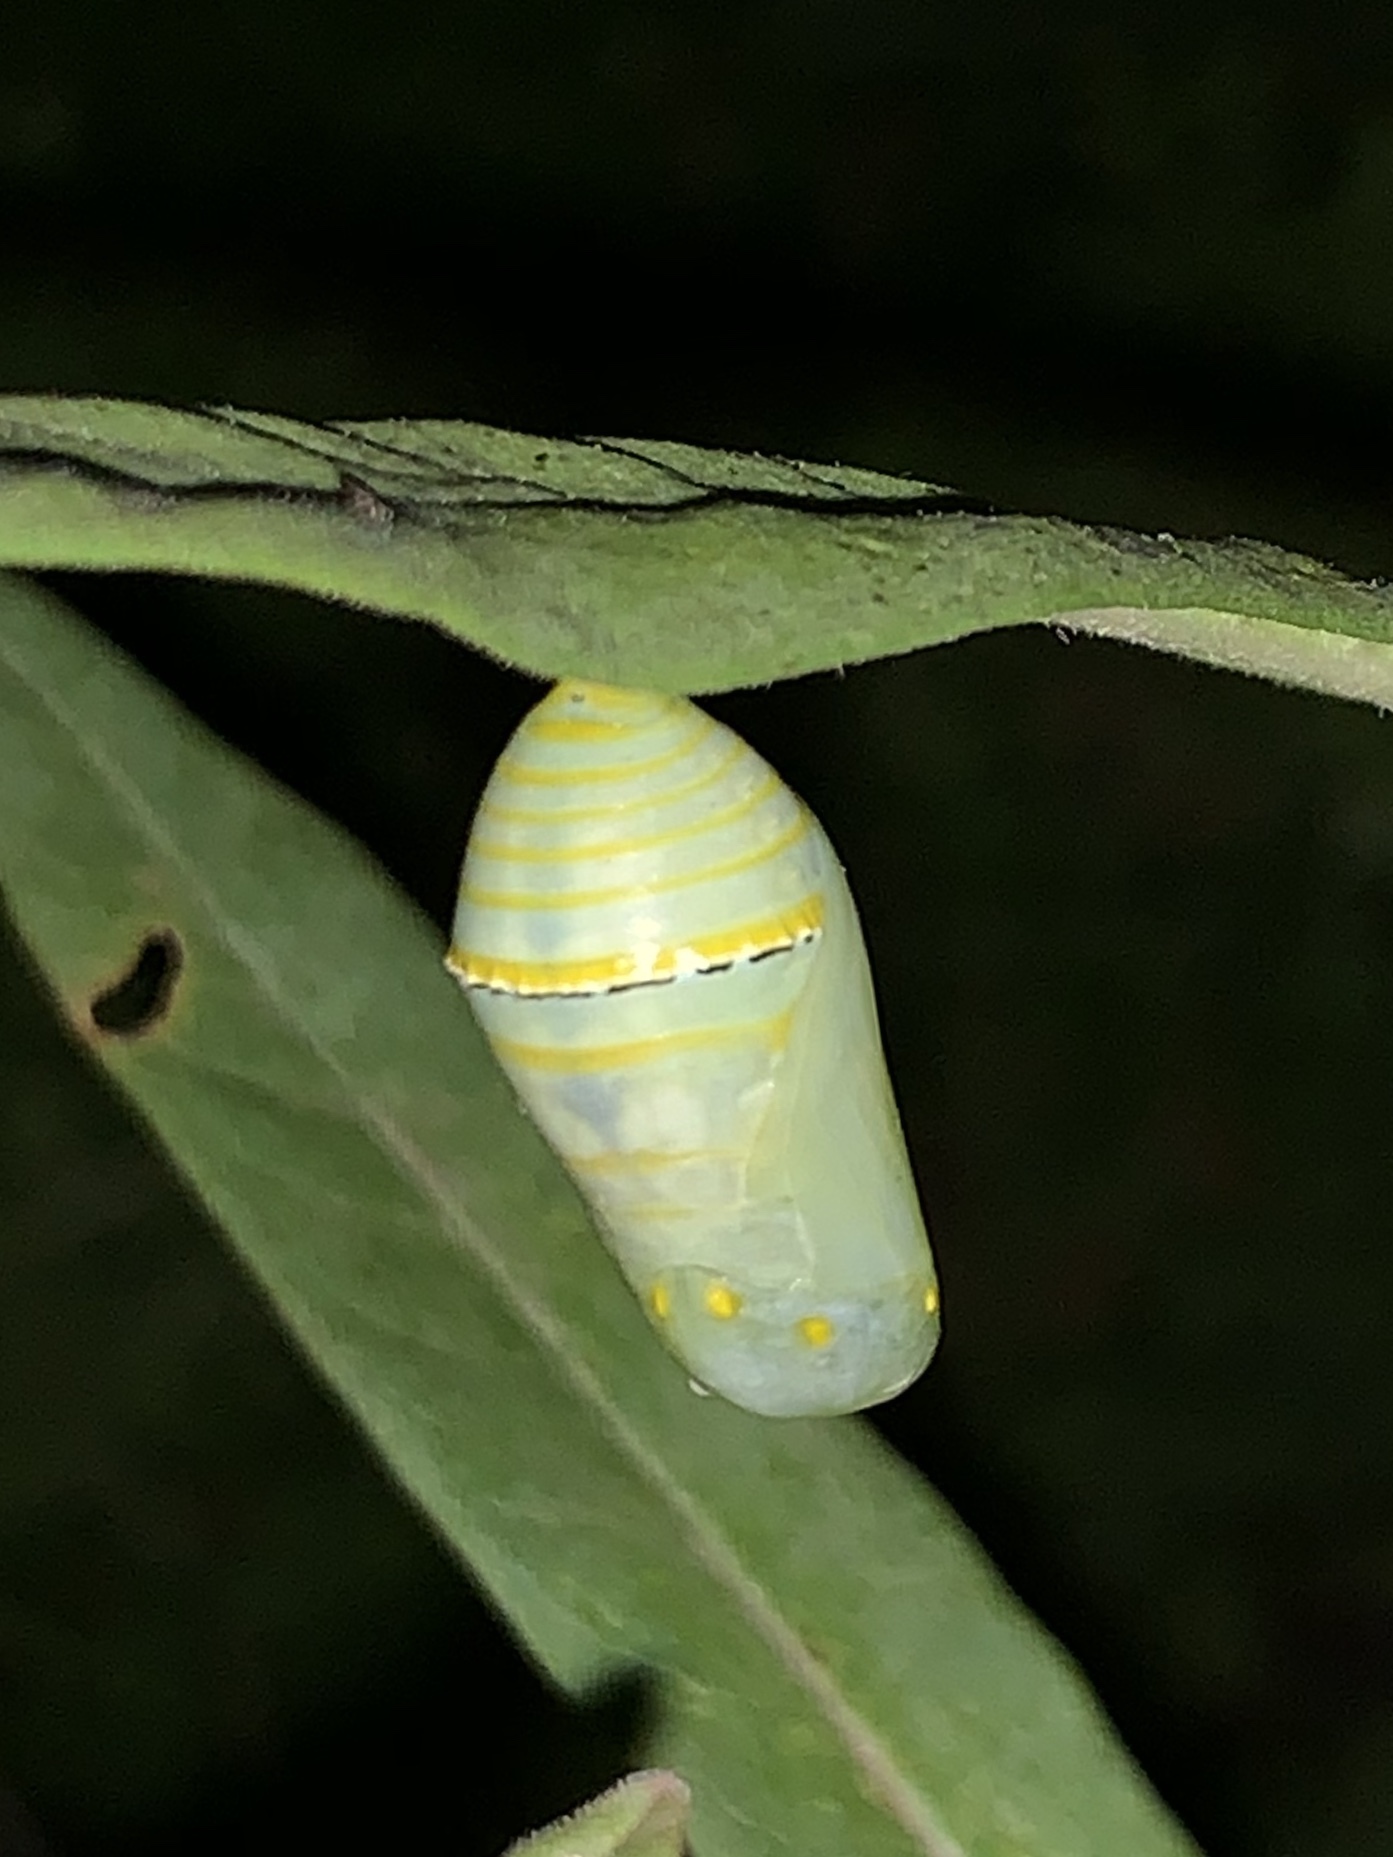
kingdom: Animalia
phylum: Arthropoda
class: Insecta
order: Lepidoptera
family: Nymphalidae
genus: Danaus
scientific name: Danaus plexippus
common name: Monarch
